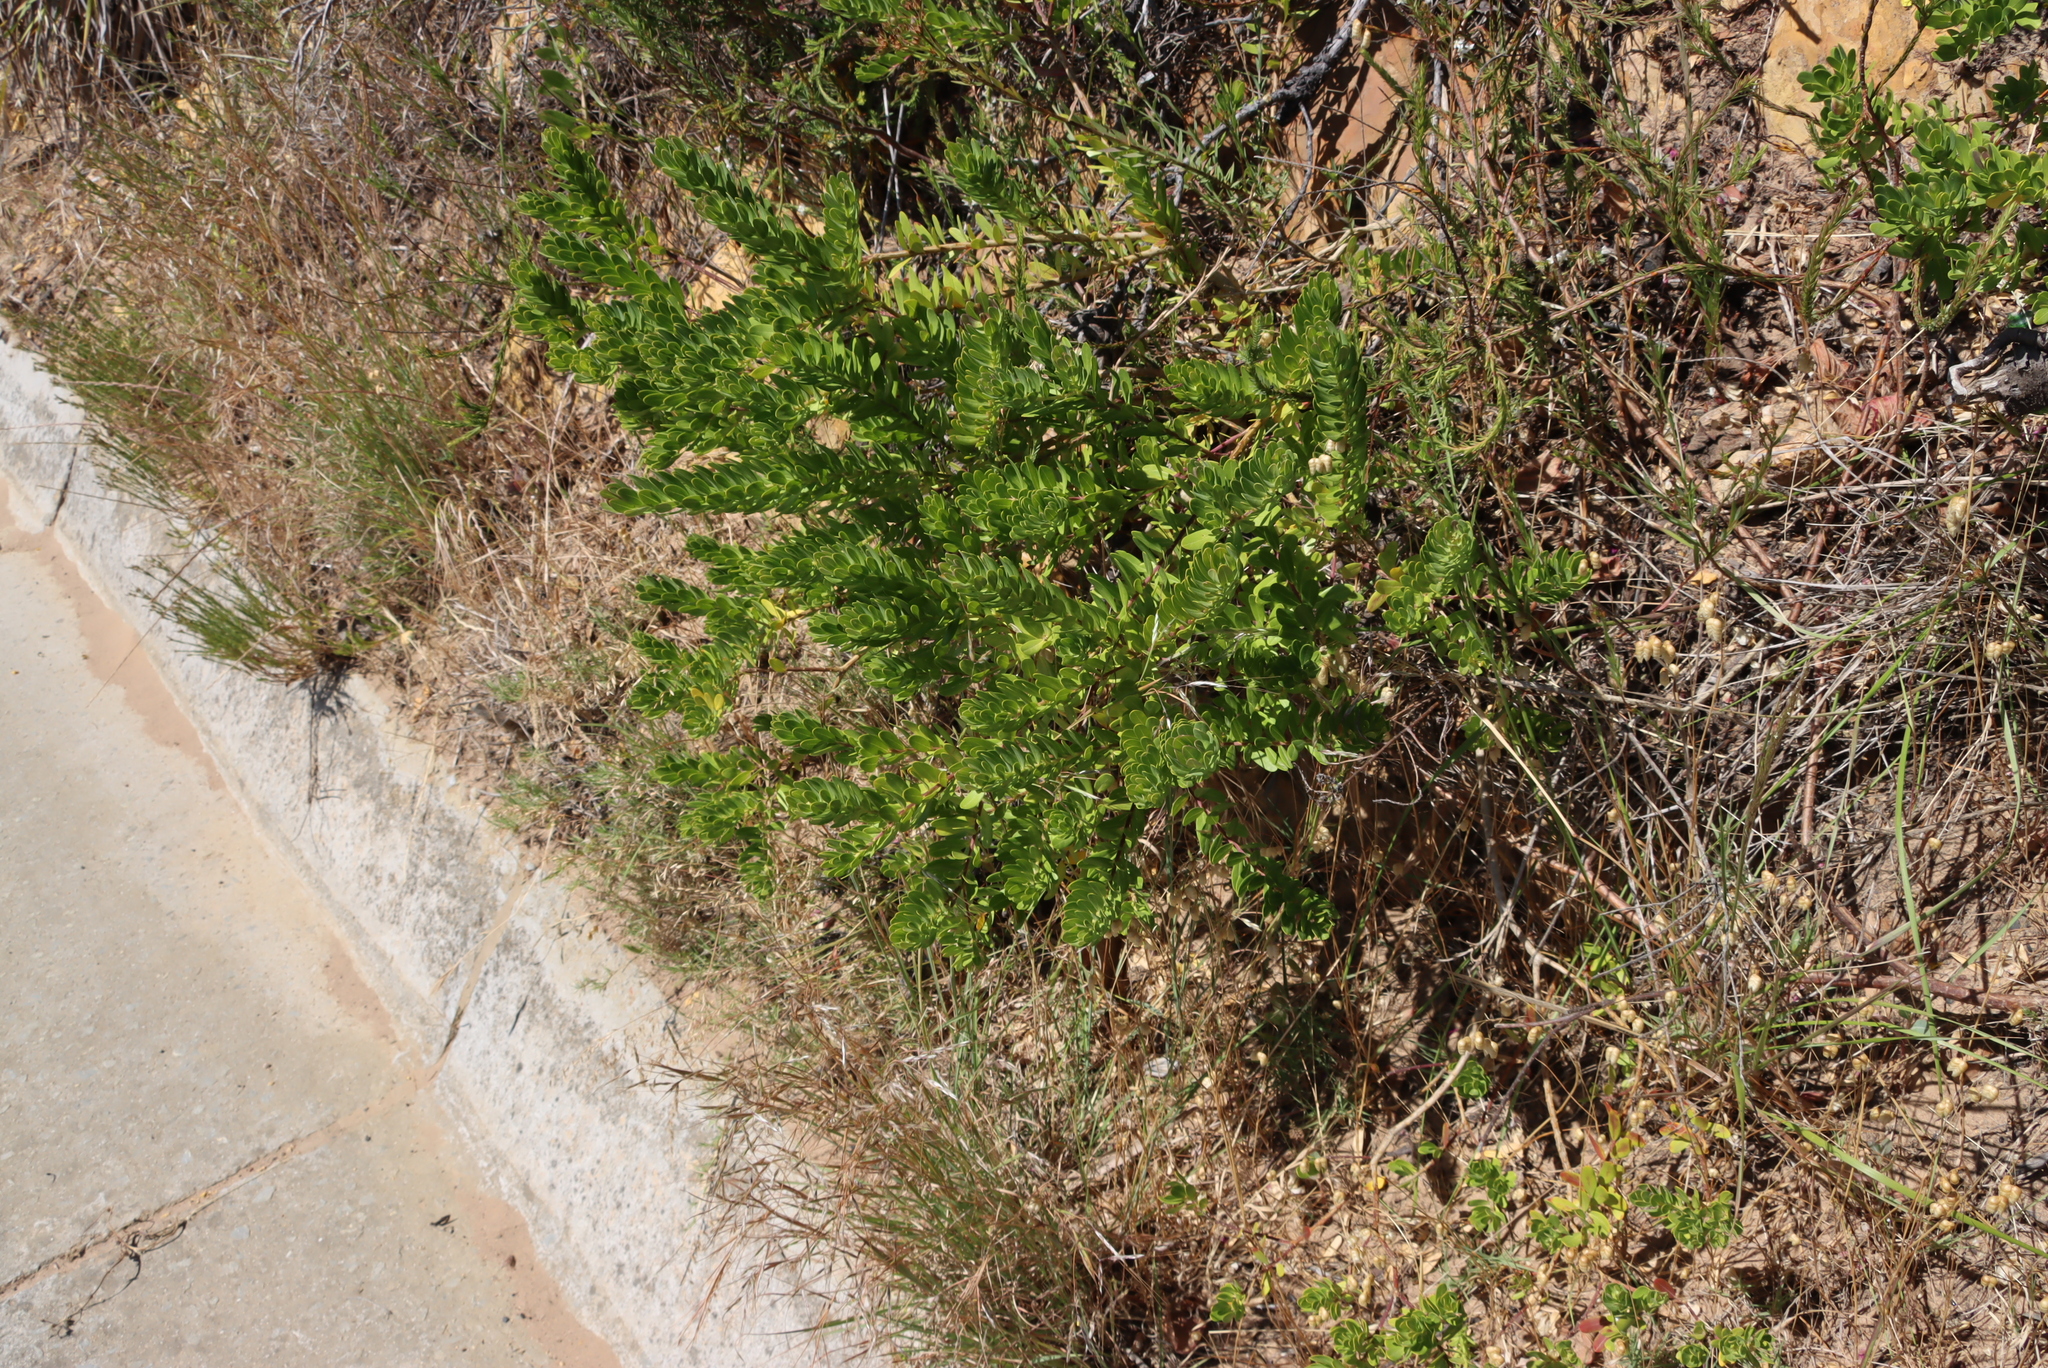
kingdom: Plantae
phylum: Tracheophyta
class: Magnoliopsida
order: Fabales
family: Polygalaceae
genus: Polygala
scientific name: Polygala myrtifolia
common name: Myrtle-leaf milkwort
